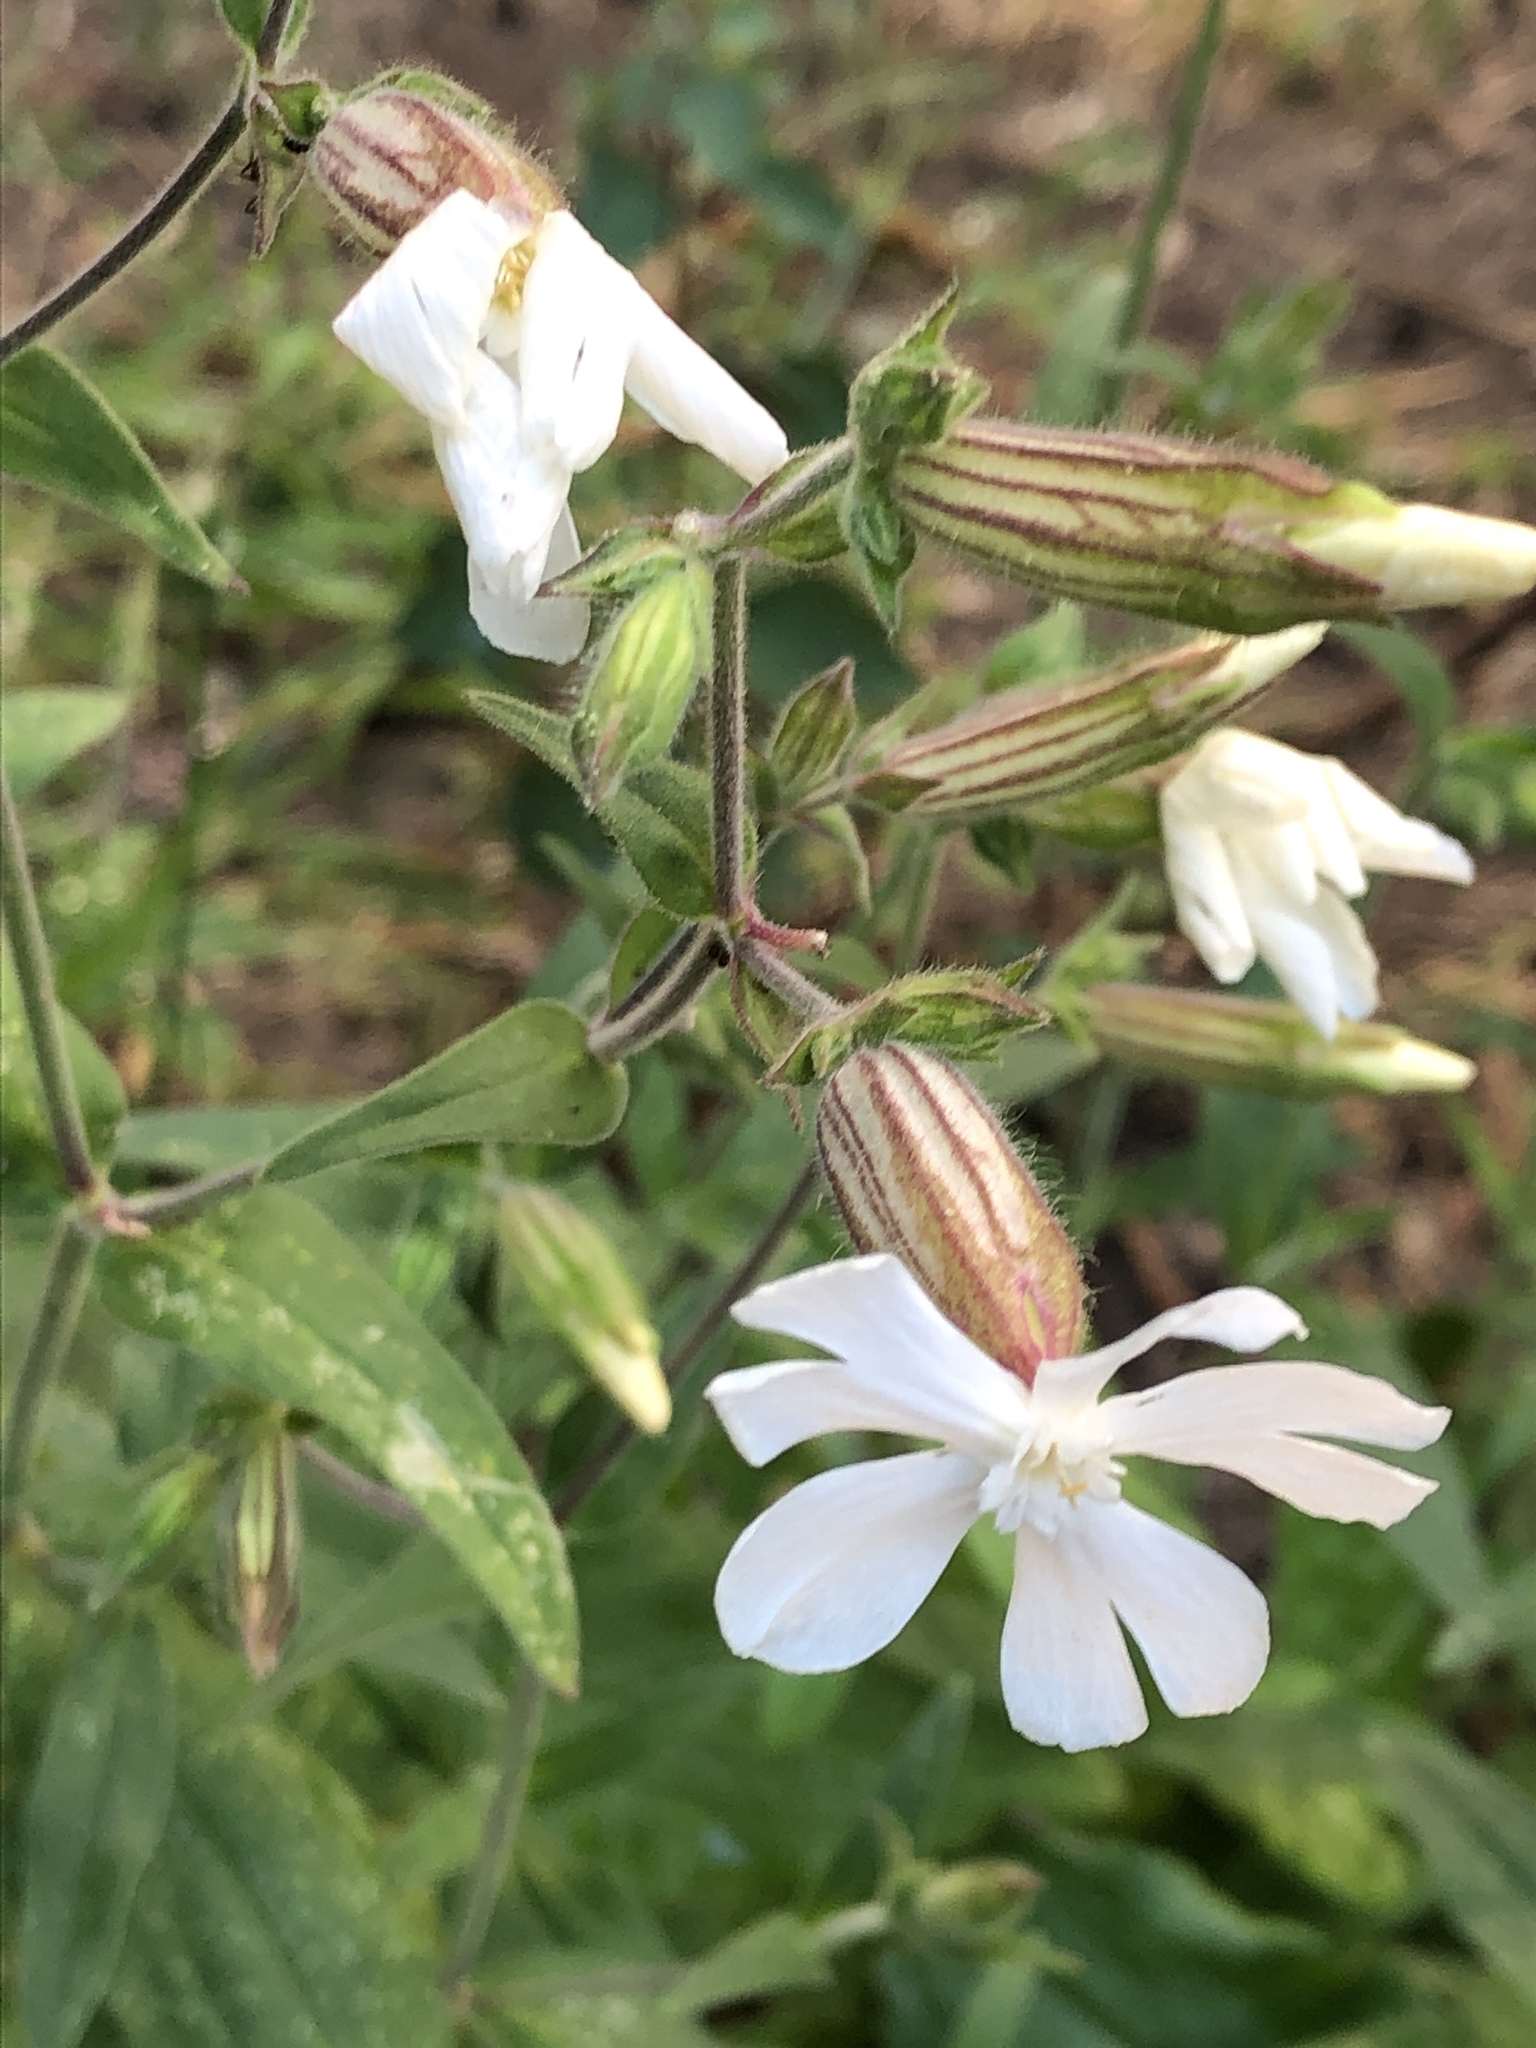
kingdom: Plantae
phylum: Tracheophyta
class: Magnoliopsida
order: Caryophyllales
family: Caryophyllaceae
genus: Silene
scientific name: Silene latifolia
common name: White campion
